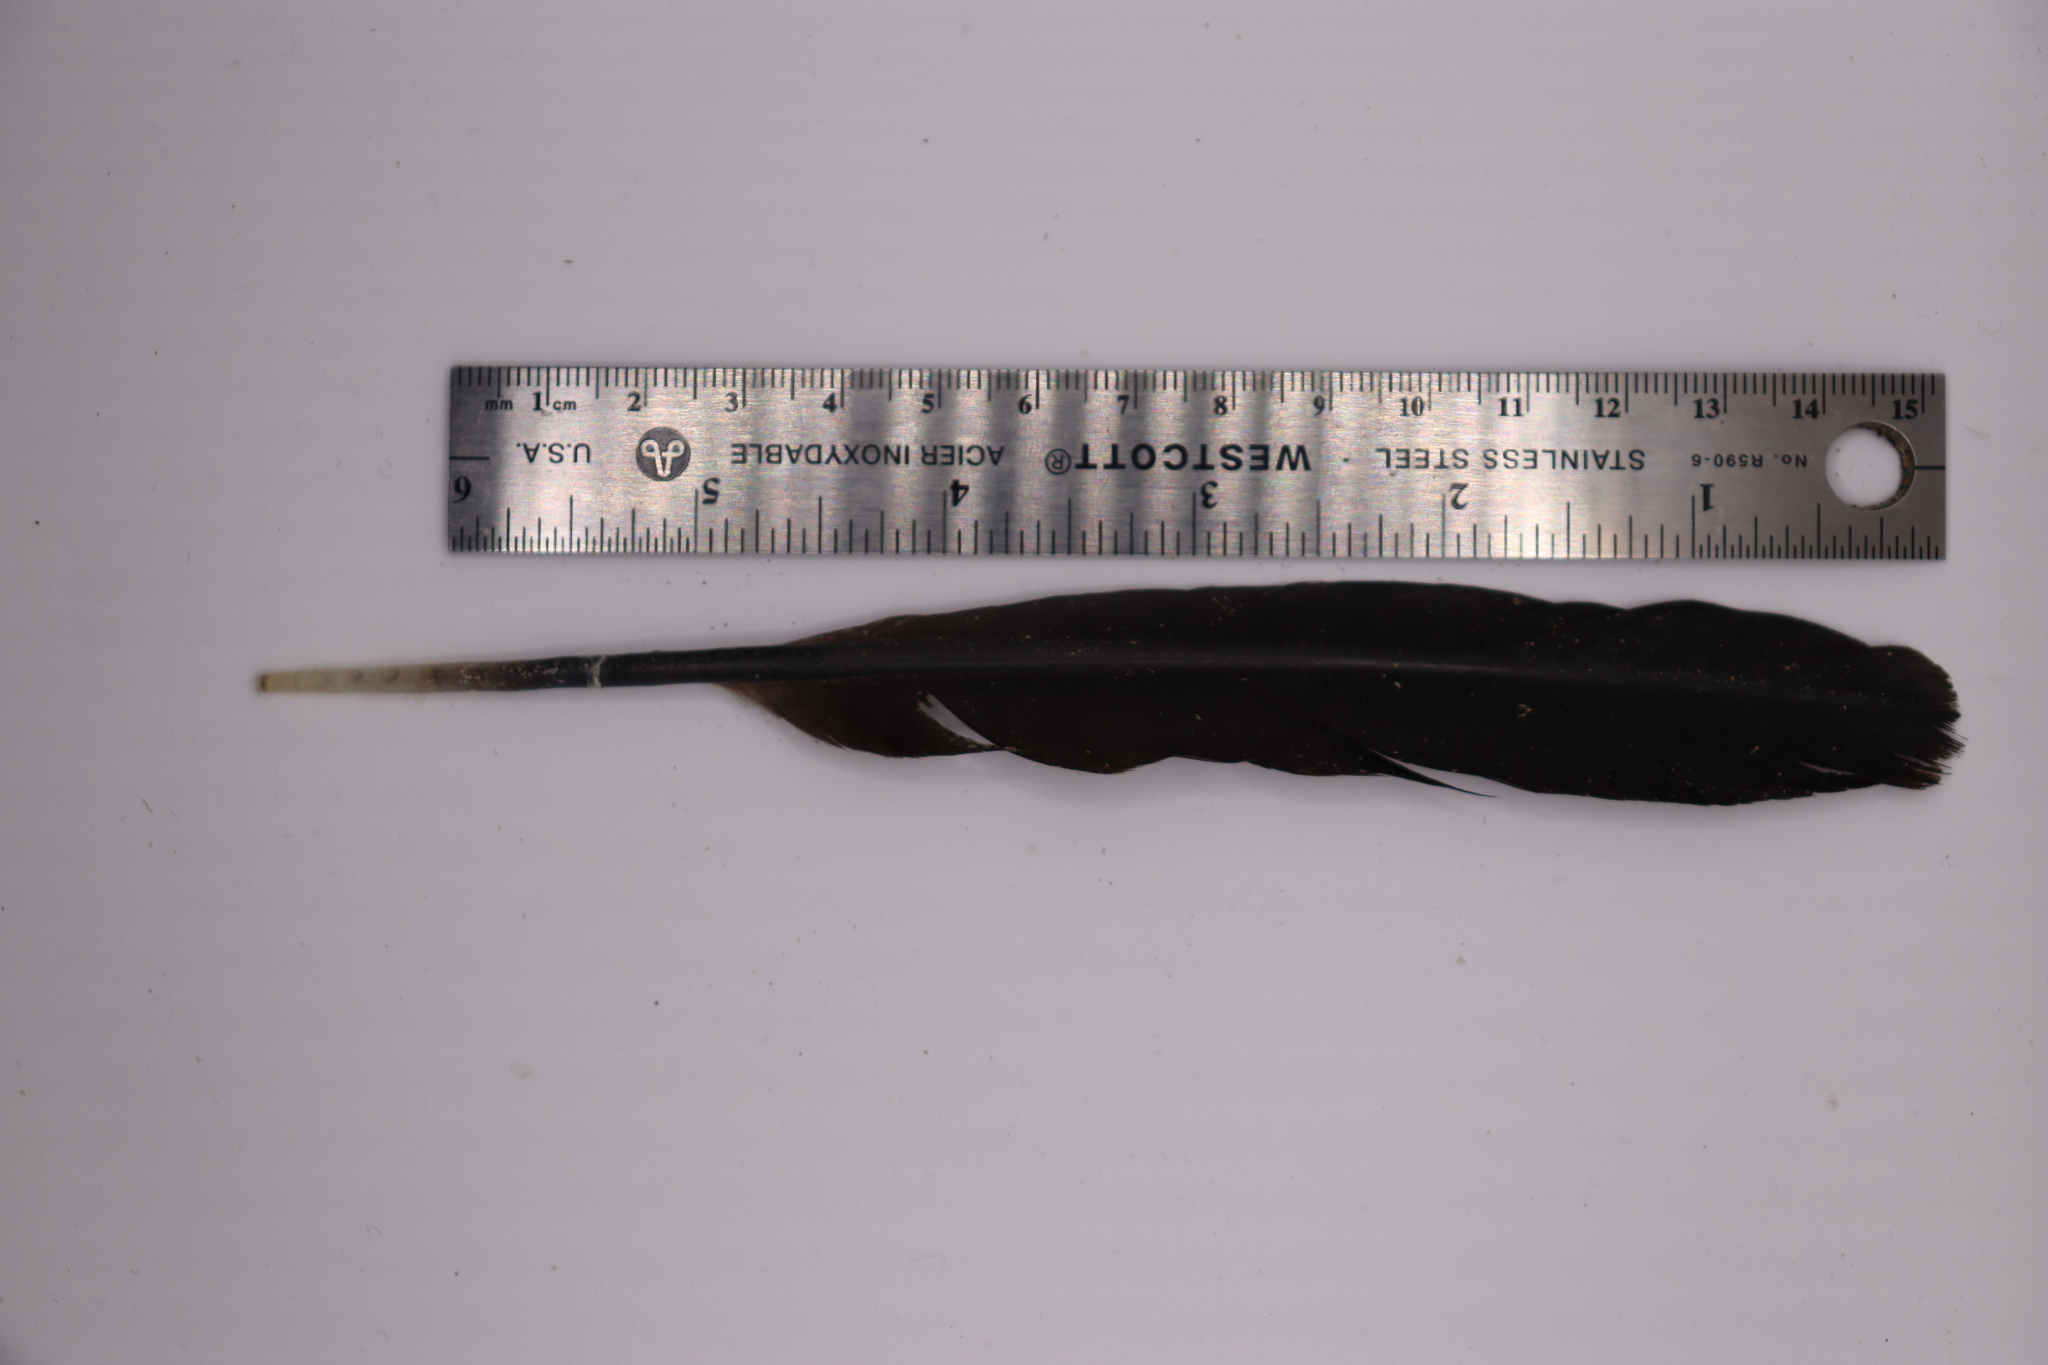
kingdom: Animalia
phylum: Chordata
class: Aves
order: Passeriformes
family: Corvidae
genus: Corvus
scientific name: Corvus brachyrhynchos
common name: American crow
